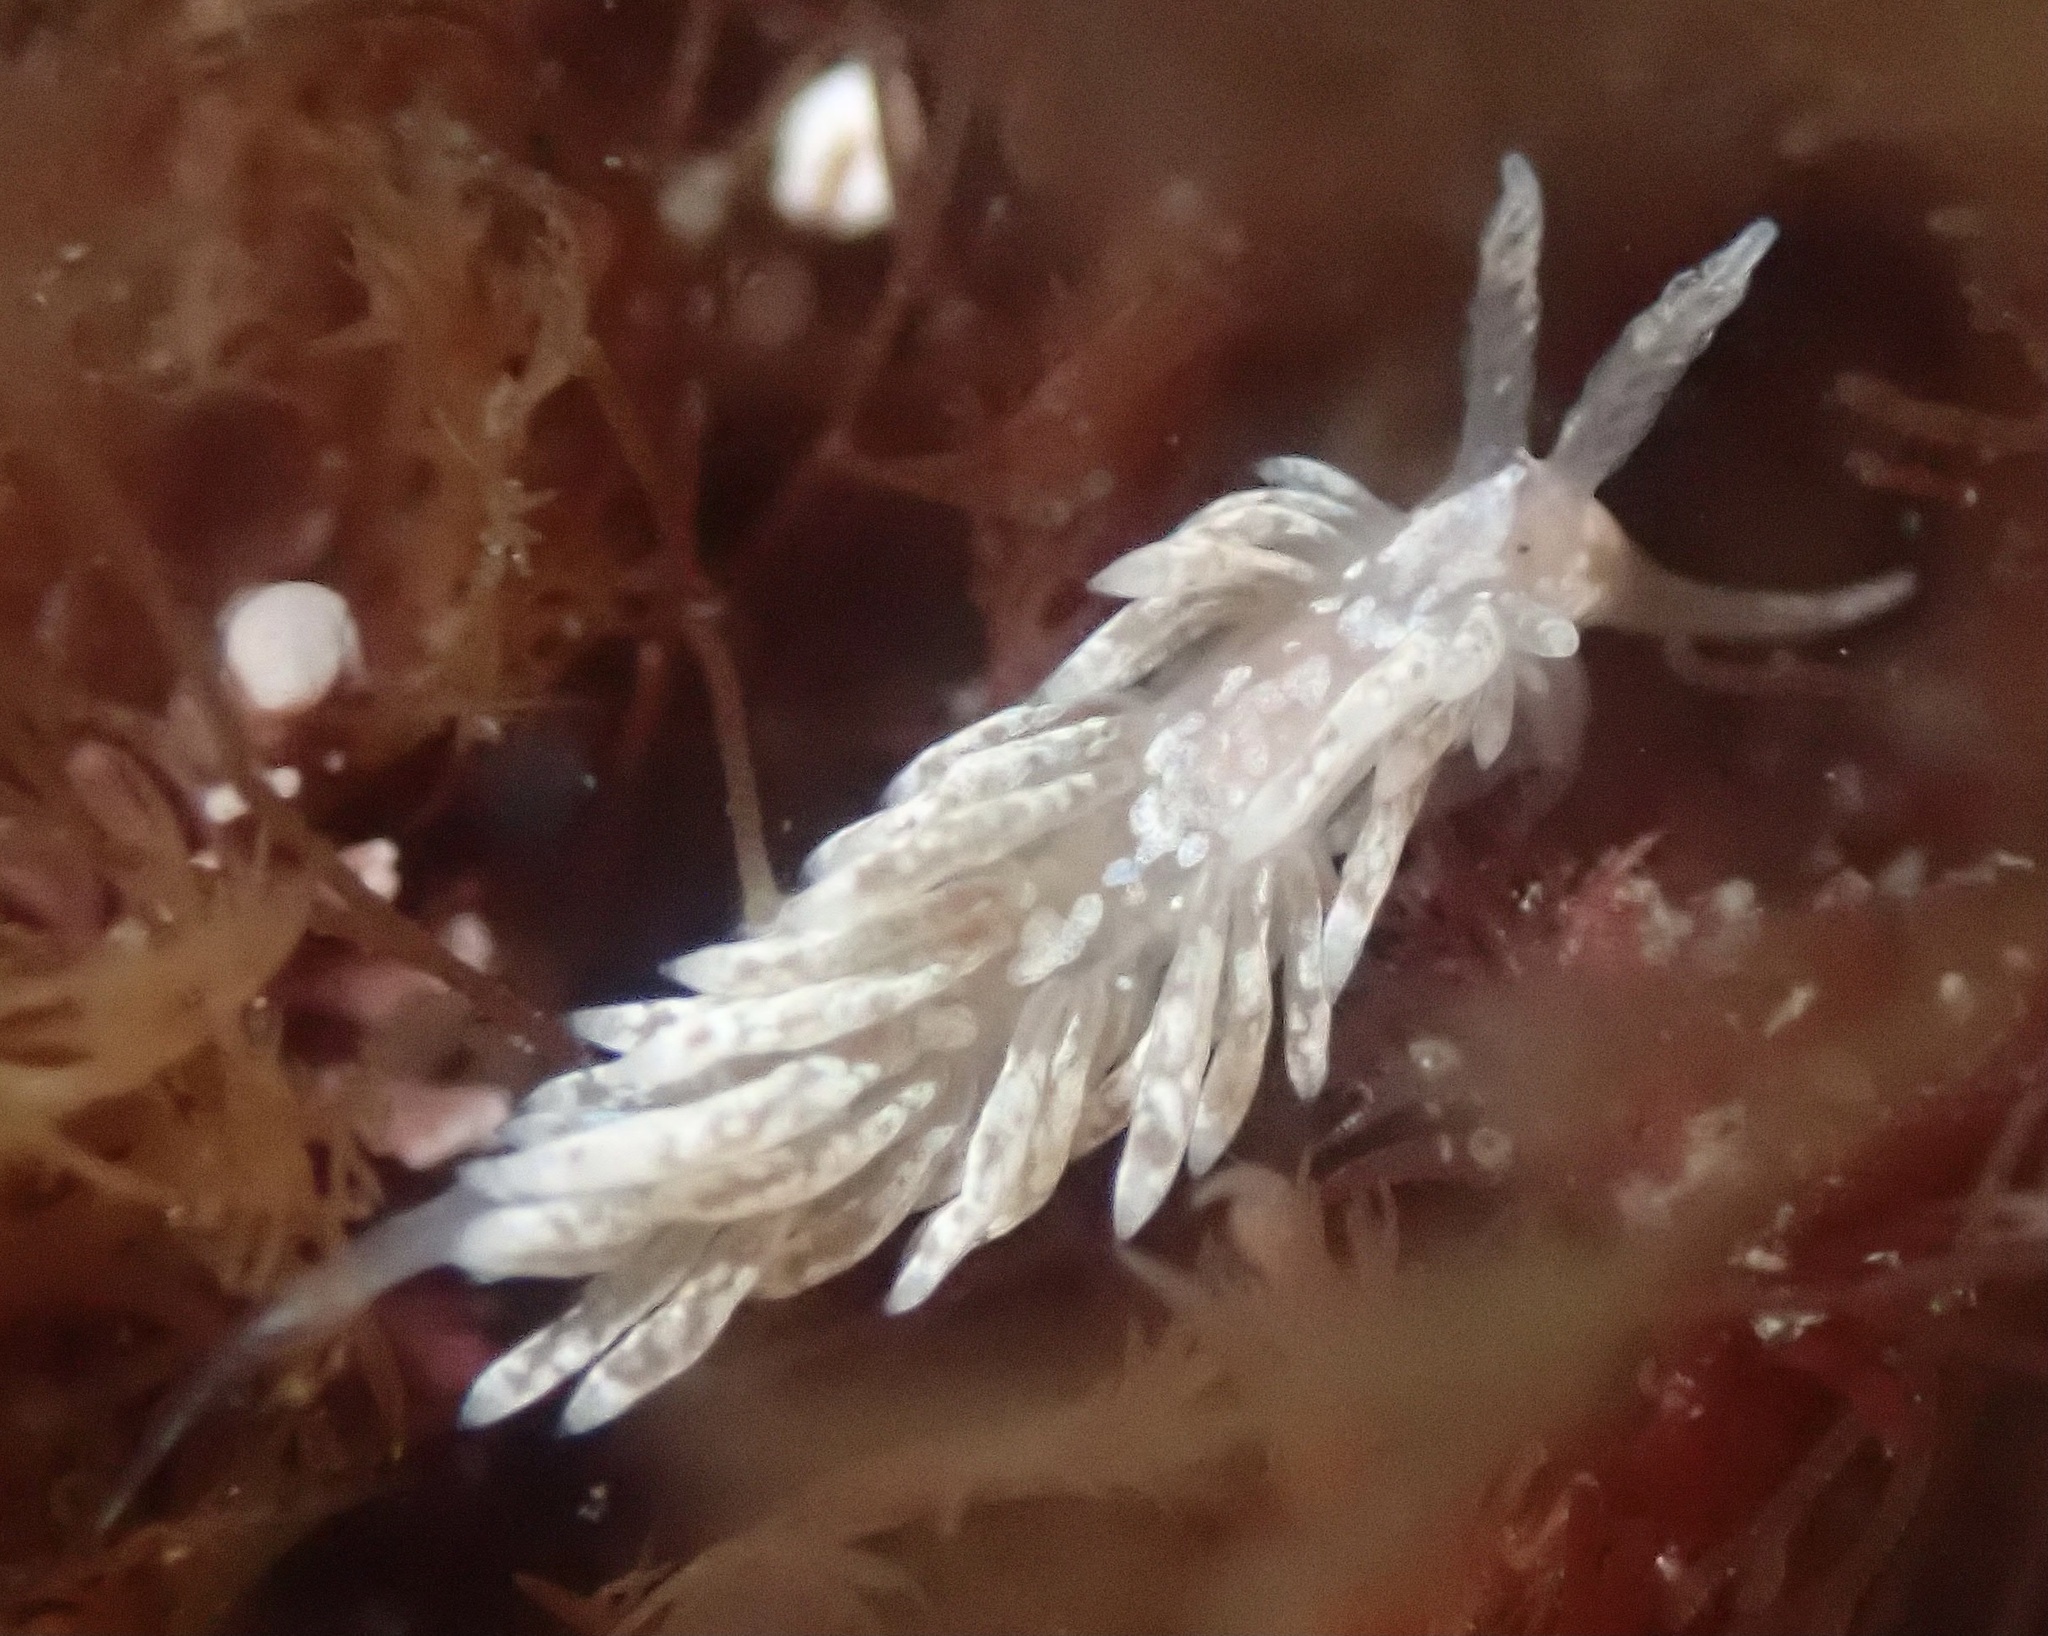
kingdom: Animalia
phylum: Mollusca
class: Gastropoda
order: Nudibranchia
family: Aeolidiidae
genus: Anteaeolidiella
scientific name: Anteaeolidiella chromosoma
